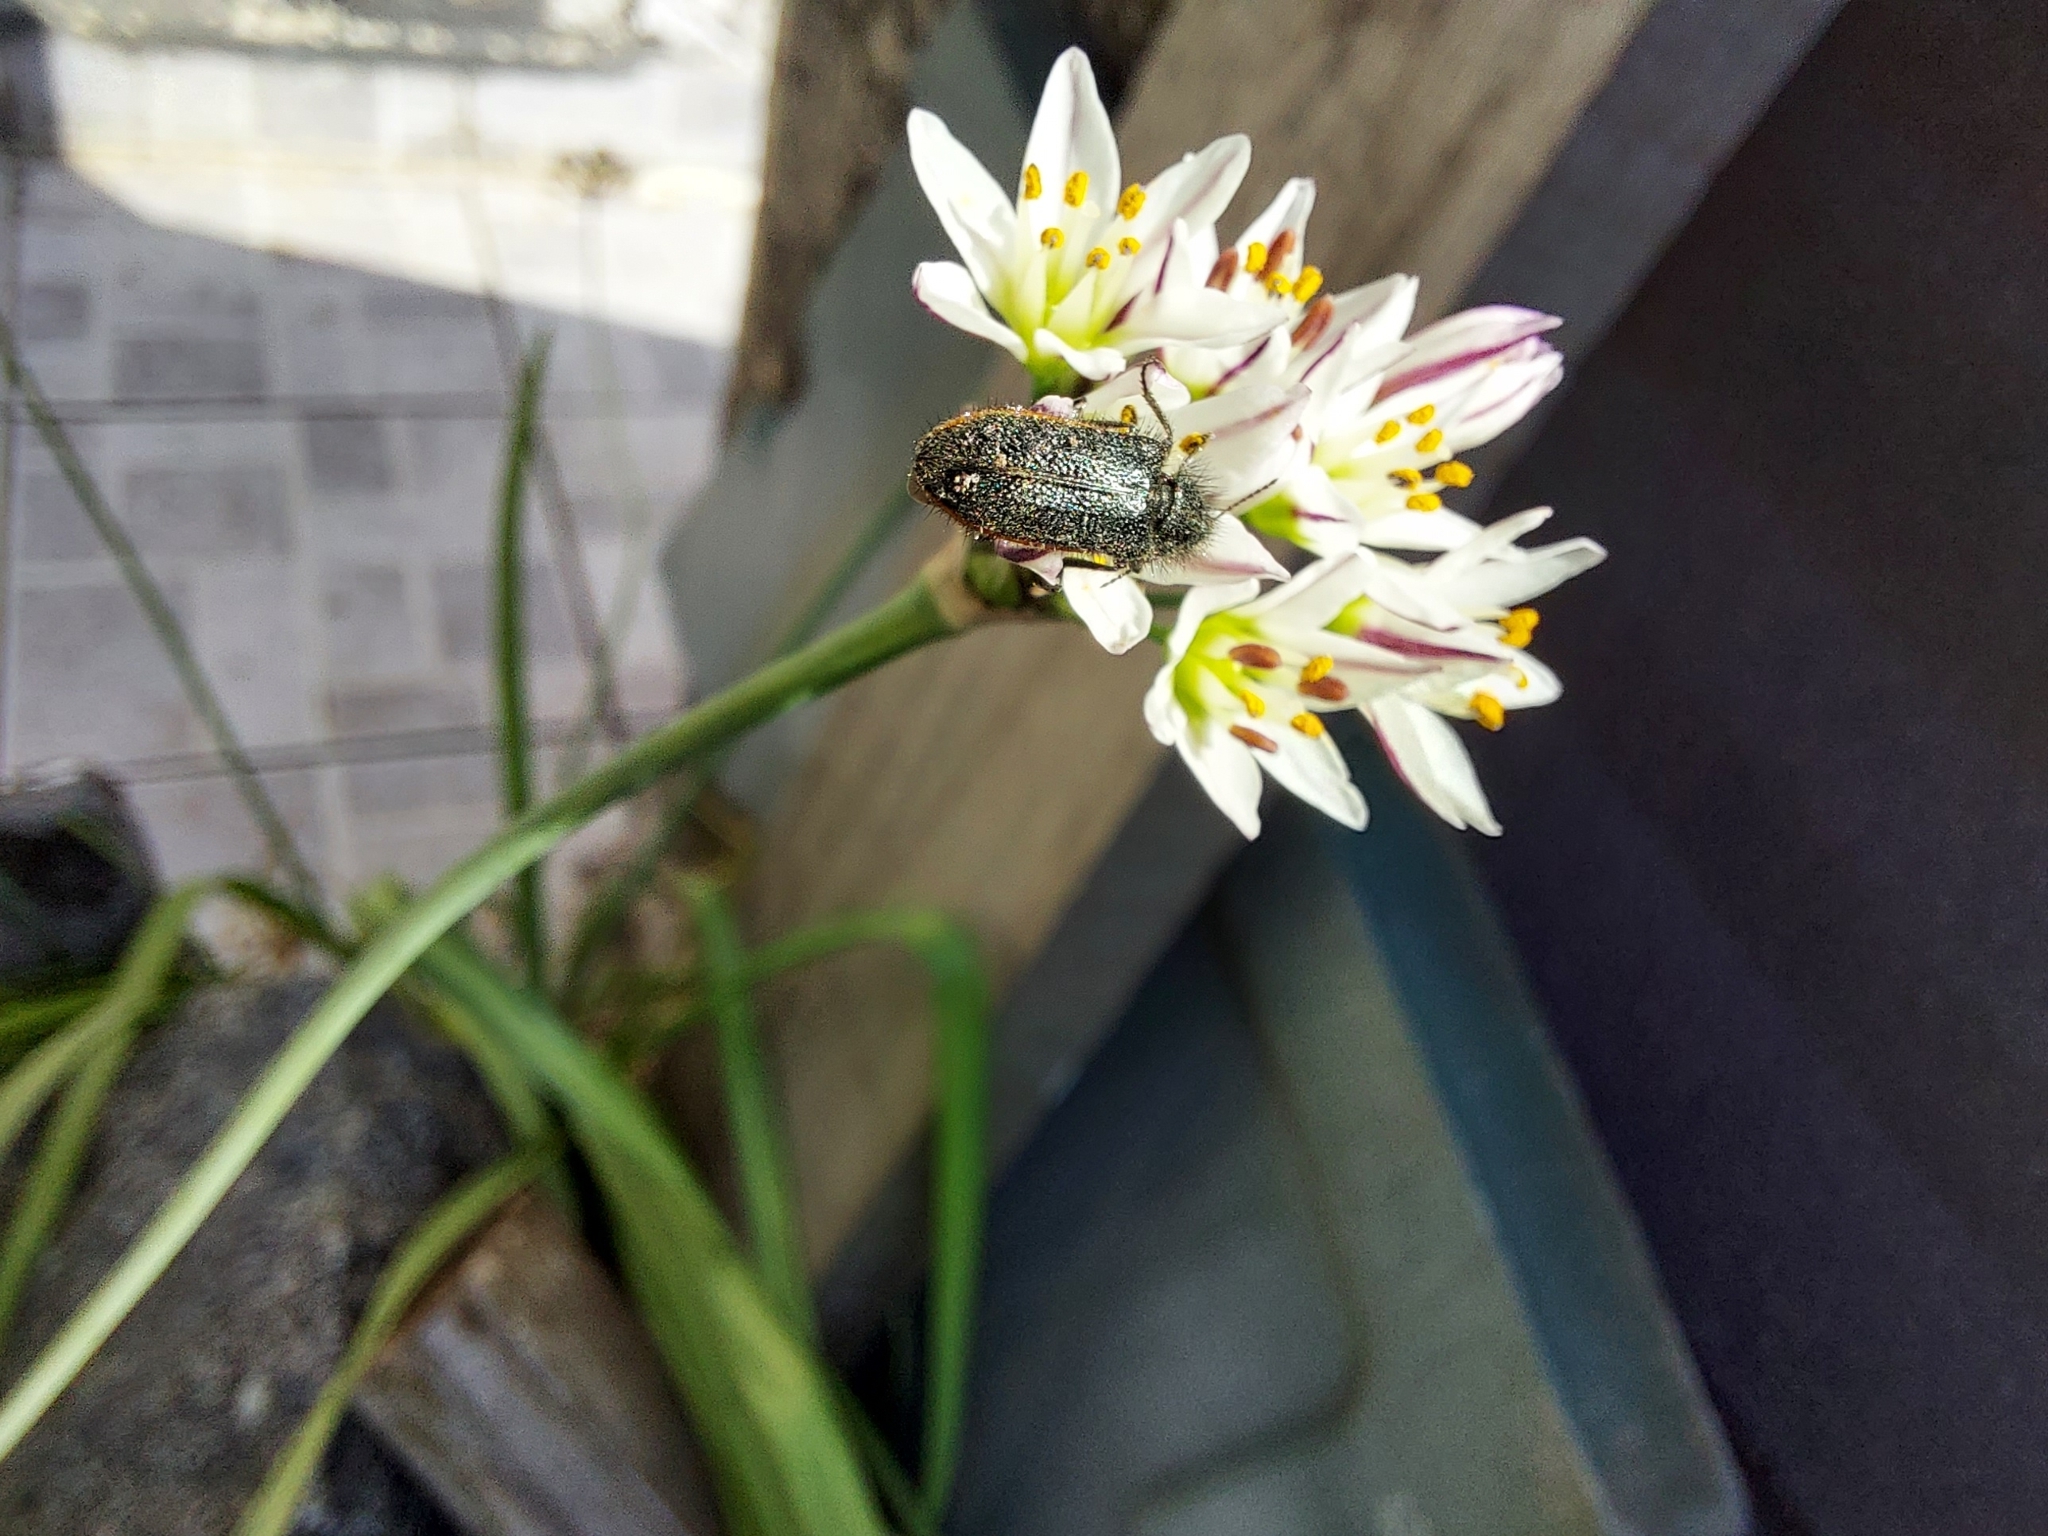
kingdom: Animalia
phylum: Arthropoda
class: Insecta
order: Coleoptera
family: Melyridae
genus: Astylus
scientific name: Astylus
